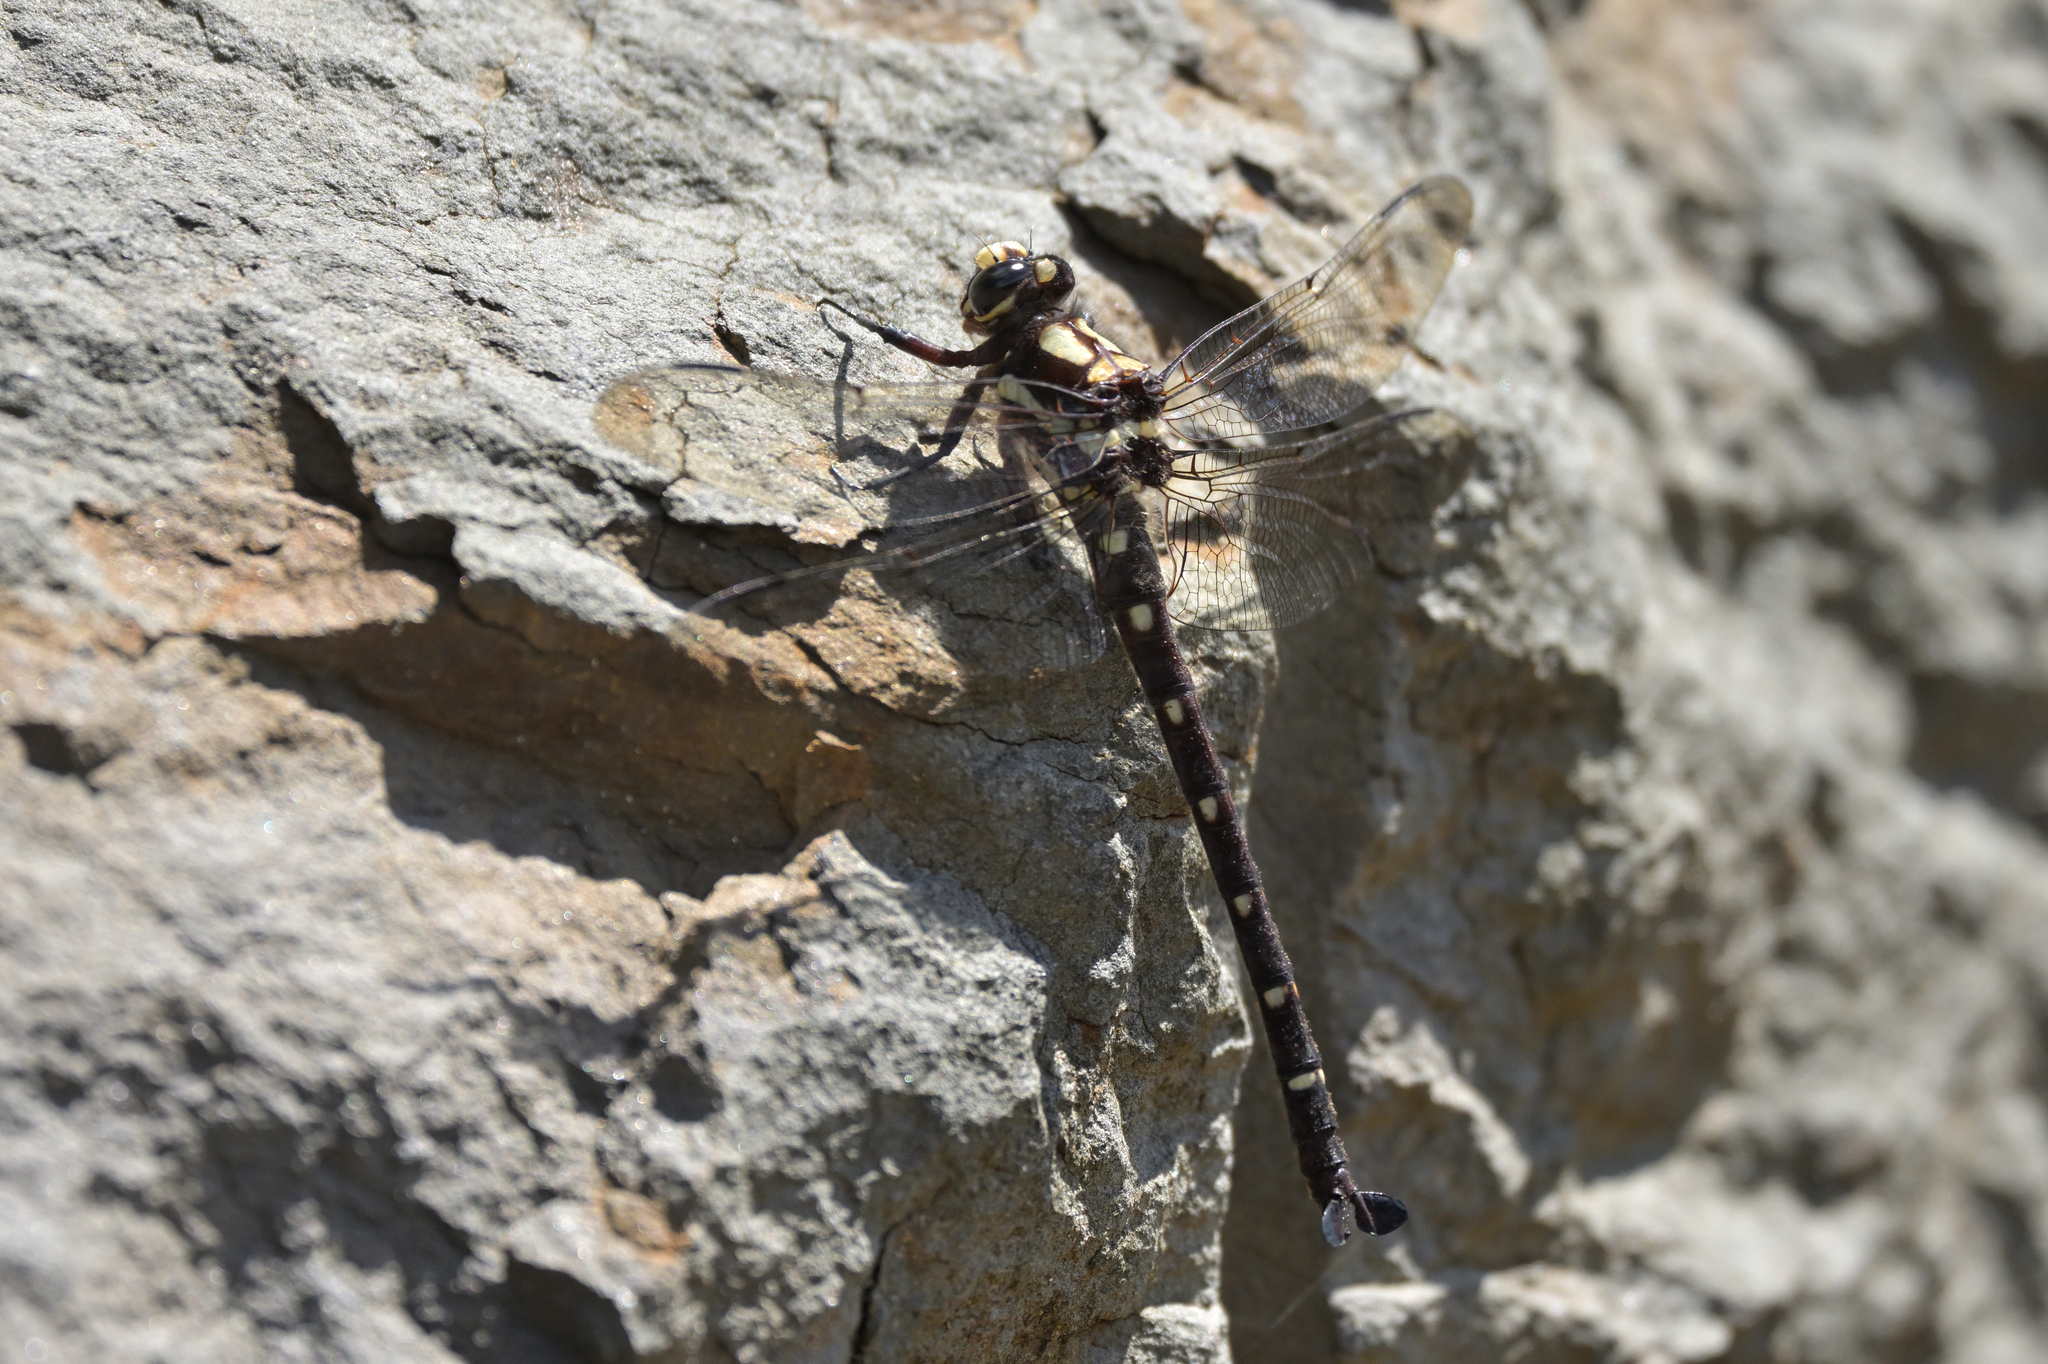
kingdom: Animalia
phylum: Arthropoda
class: Insecta
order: Odonata
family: Petaluridae
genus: Uropetala
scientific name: Uropetala carovei
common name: Bush giant dragonfly
